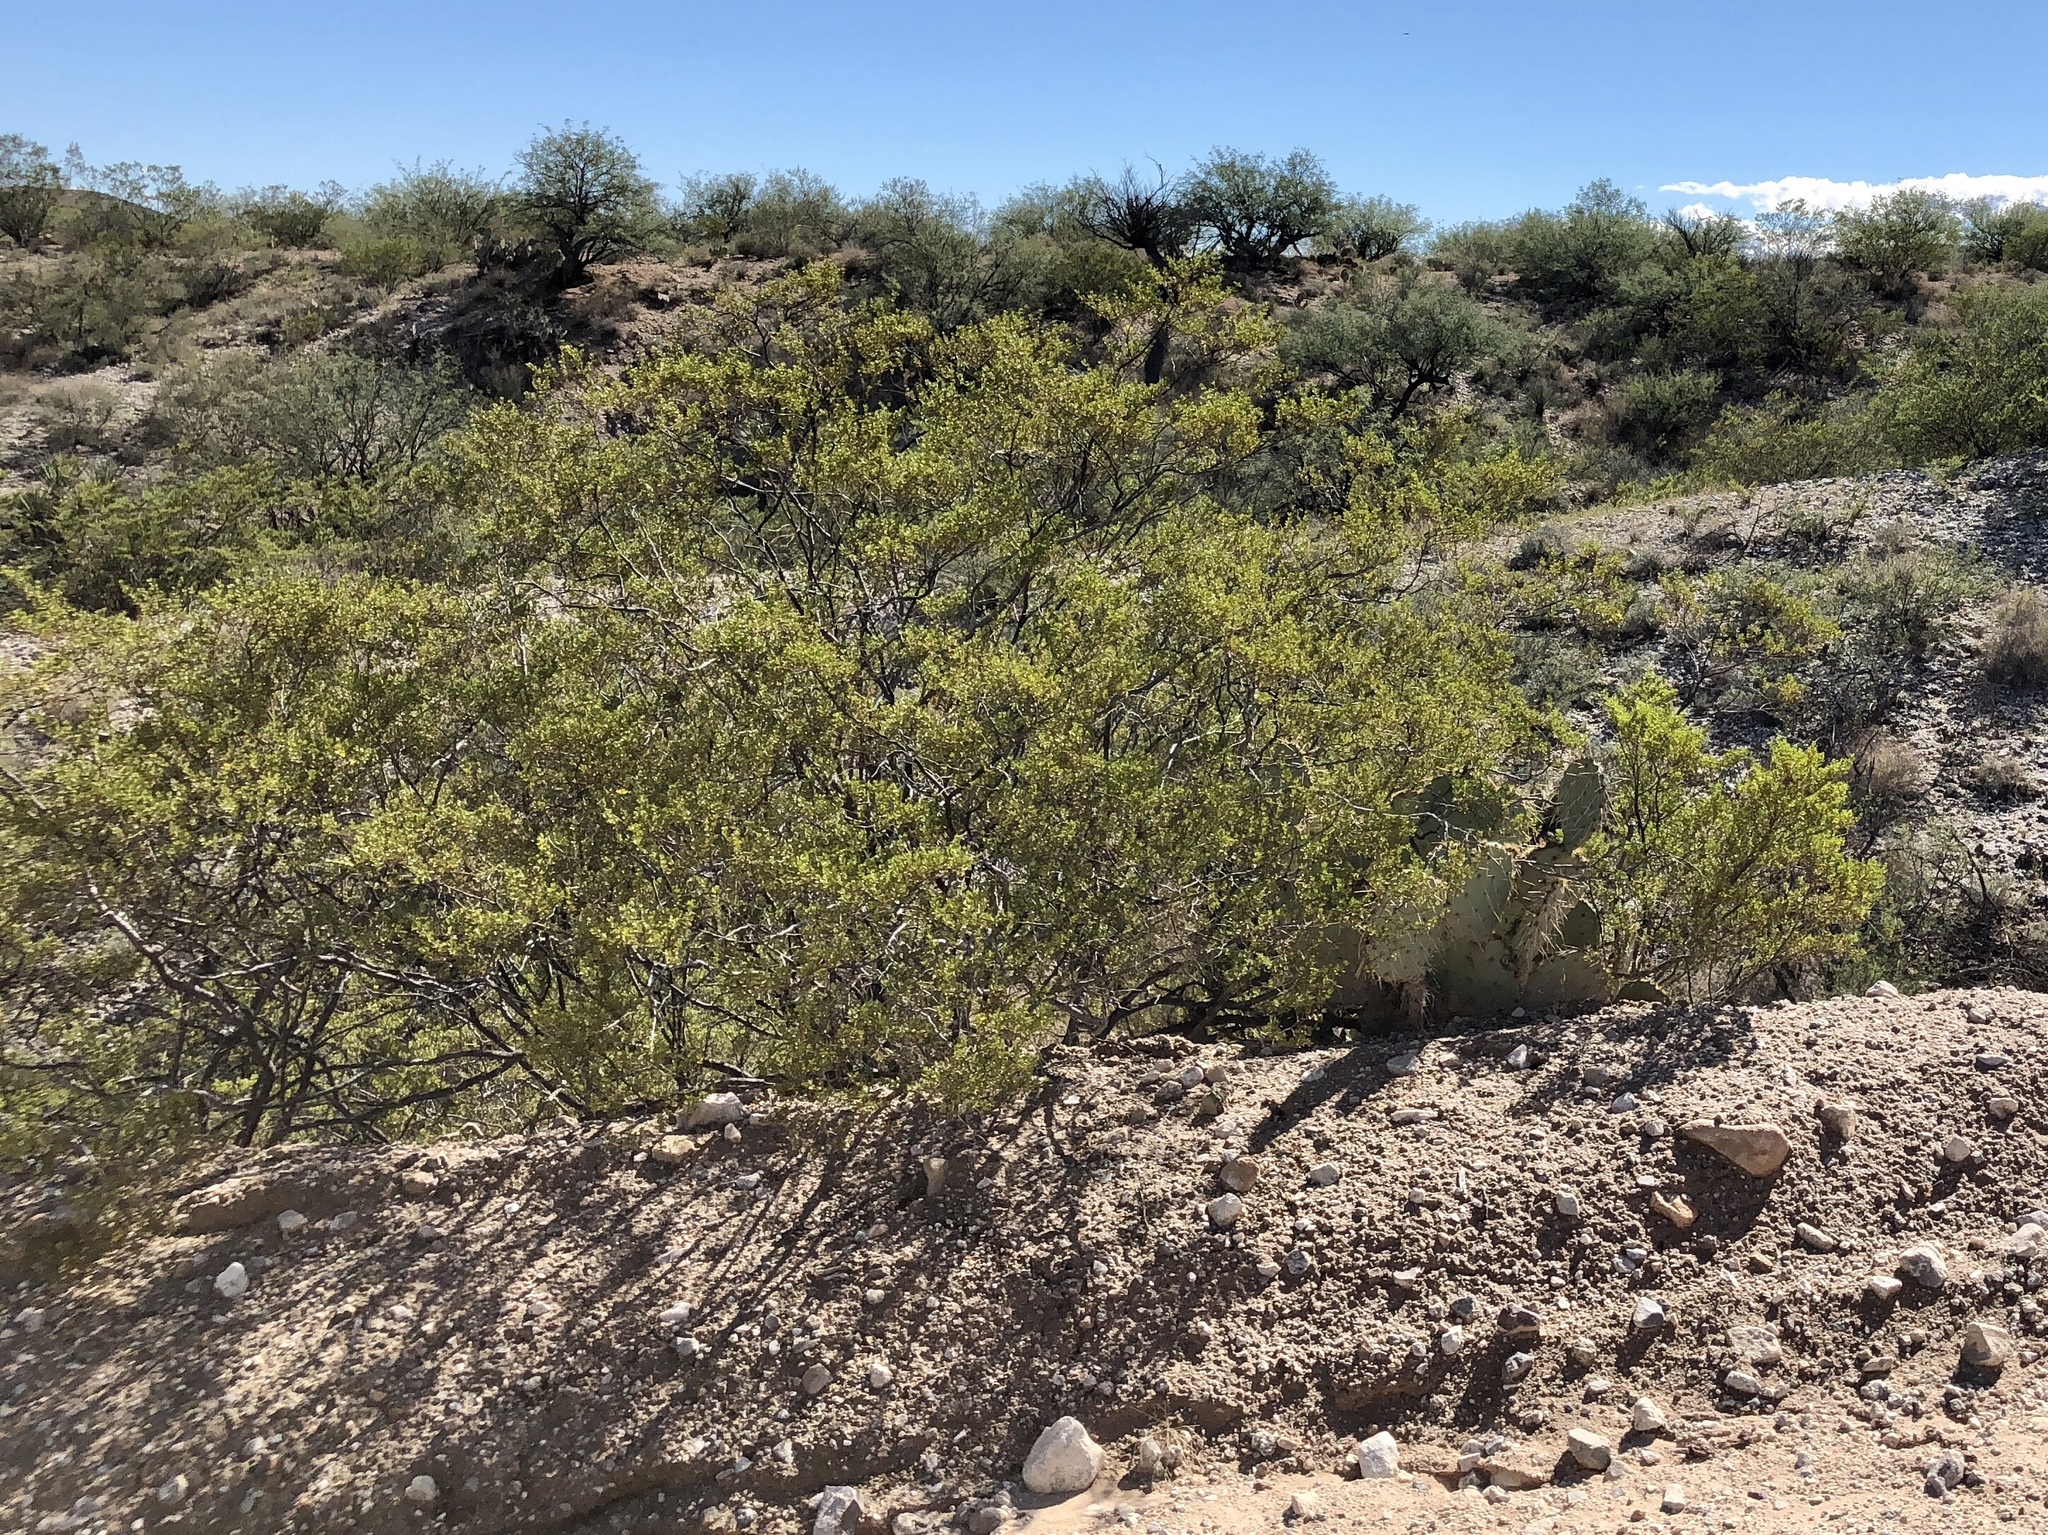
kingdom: Plantae
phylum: Tracheophyta
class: Magnoliopsida
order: Zygophyllales
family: Zygophyllaceae
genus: Larrea
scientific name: Larrea tridentata
